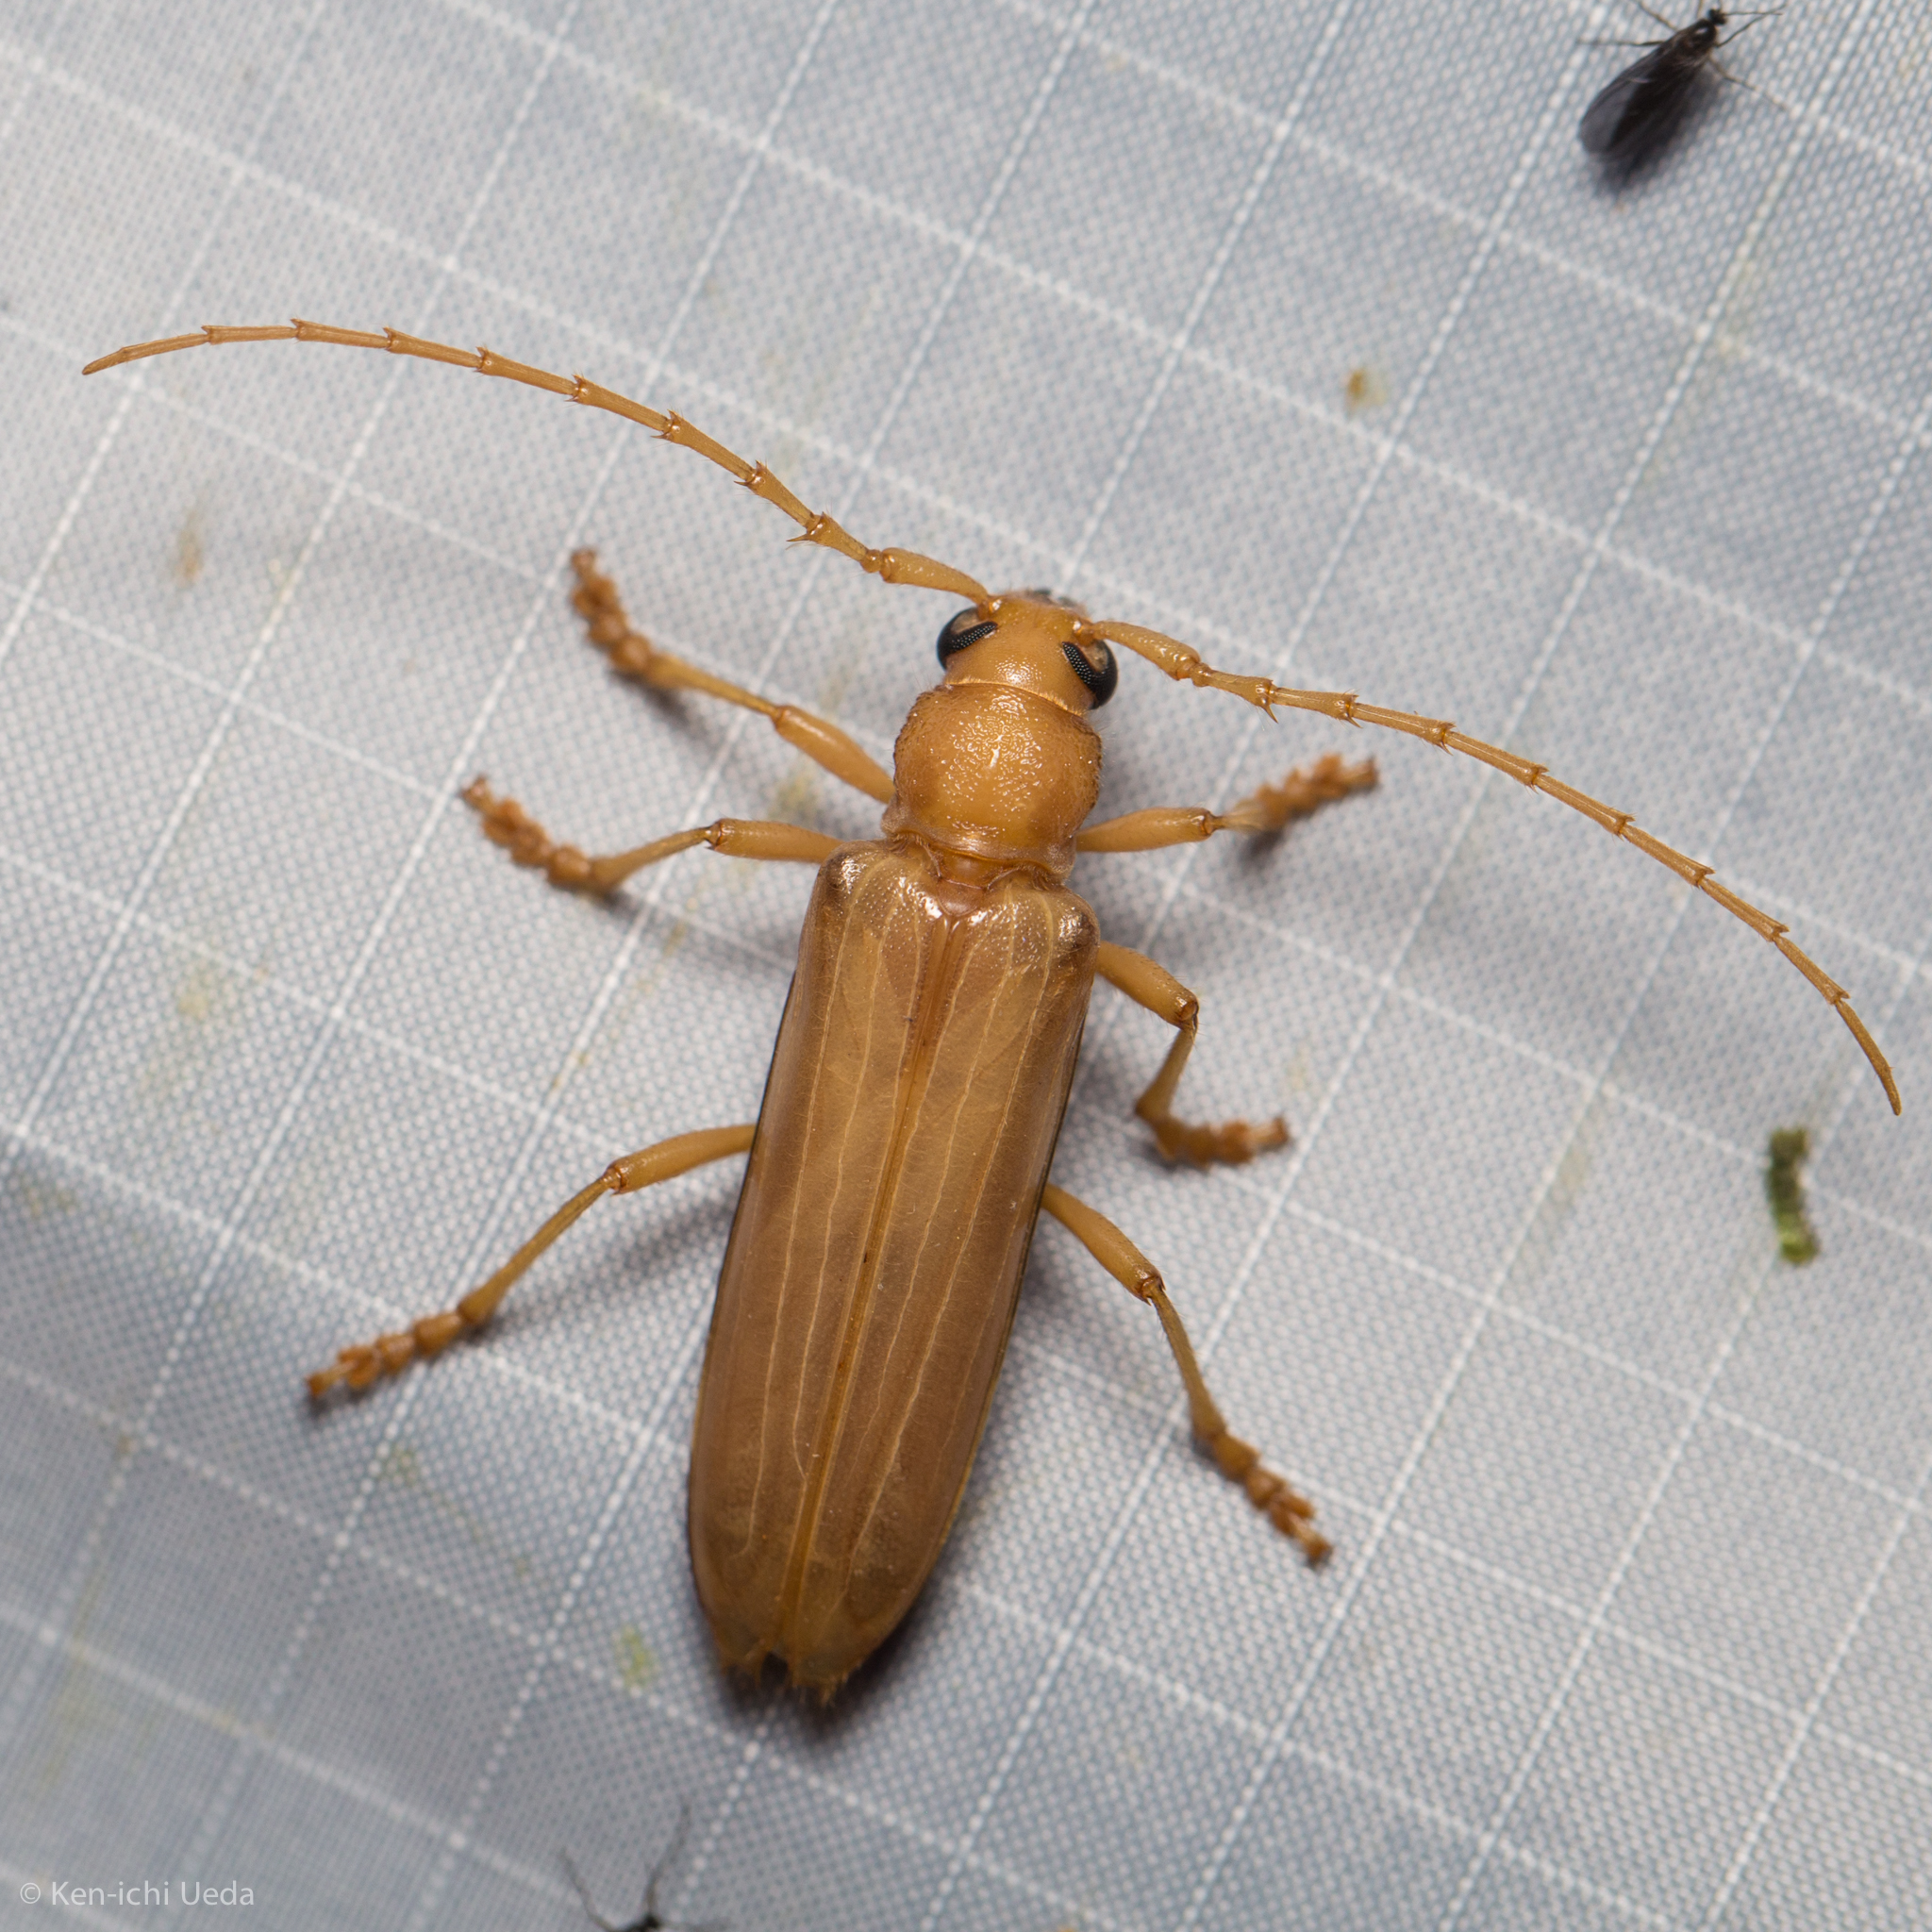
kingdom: Animalia
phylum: Arthropoda
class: Insecta
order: Coleoptera
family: Cerambycidae
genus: Atylostagma
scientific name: Atylostagma polita
